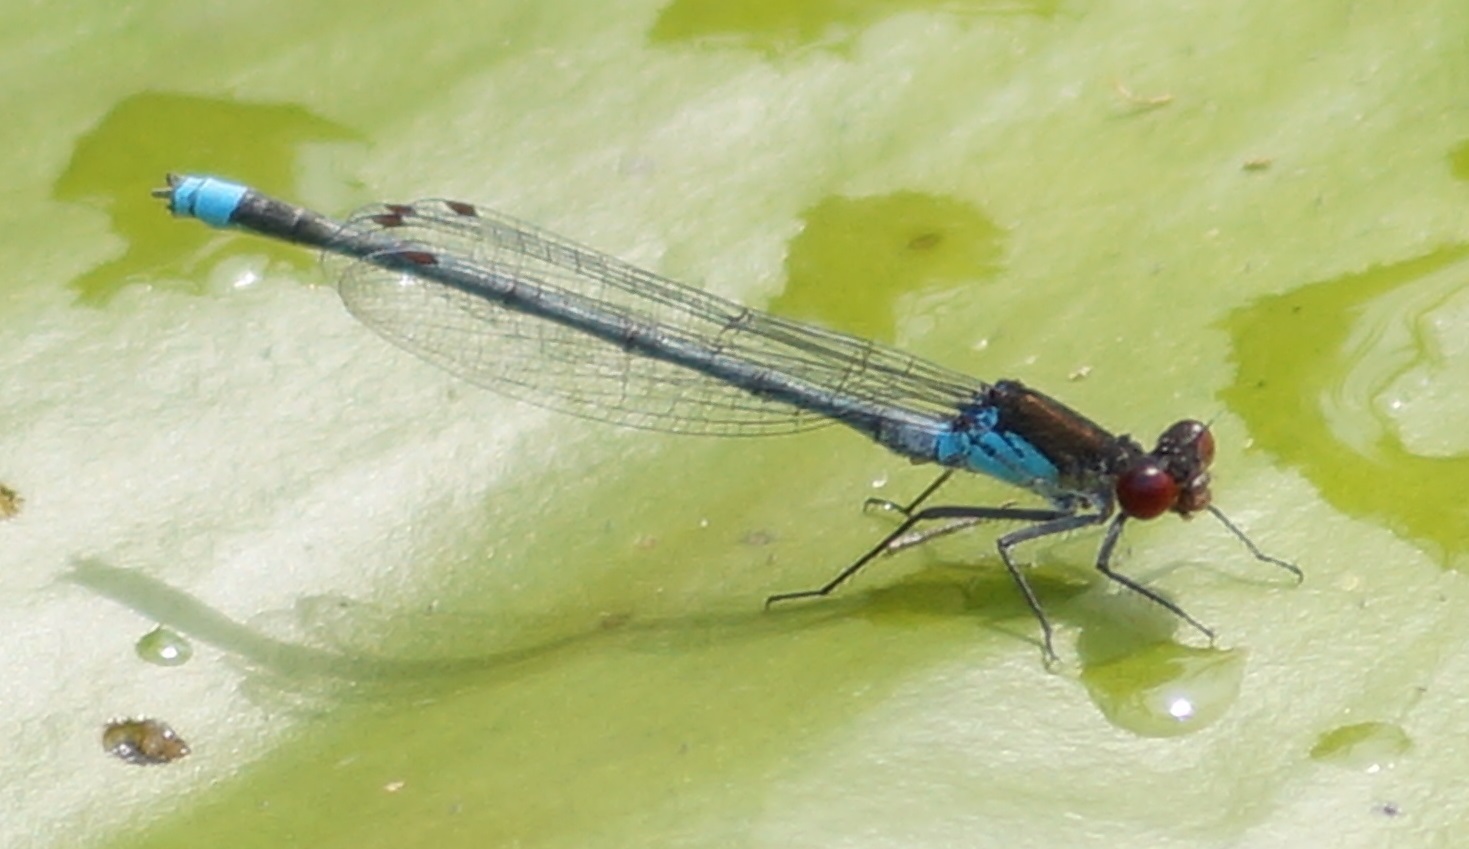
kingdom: Animalia
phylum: Arthropoda
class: Insecta
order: Odonata
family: Coenagrionidae
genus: Erythromma
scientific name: Erythromma najas
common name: Red-eyed damselfly
